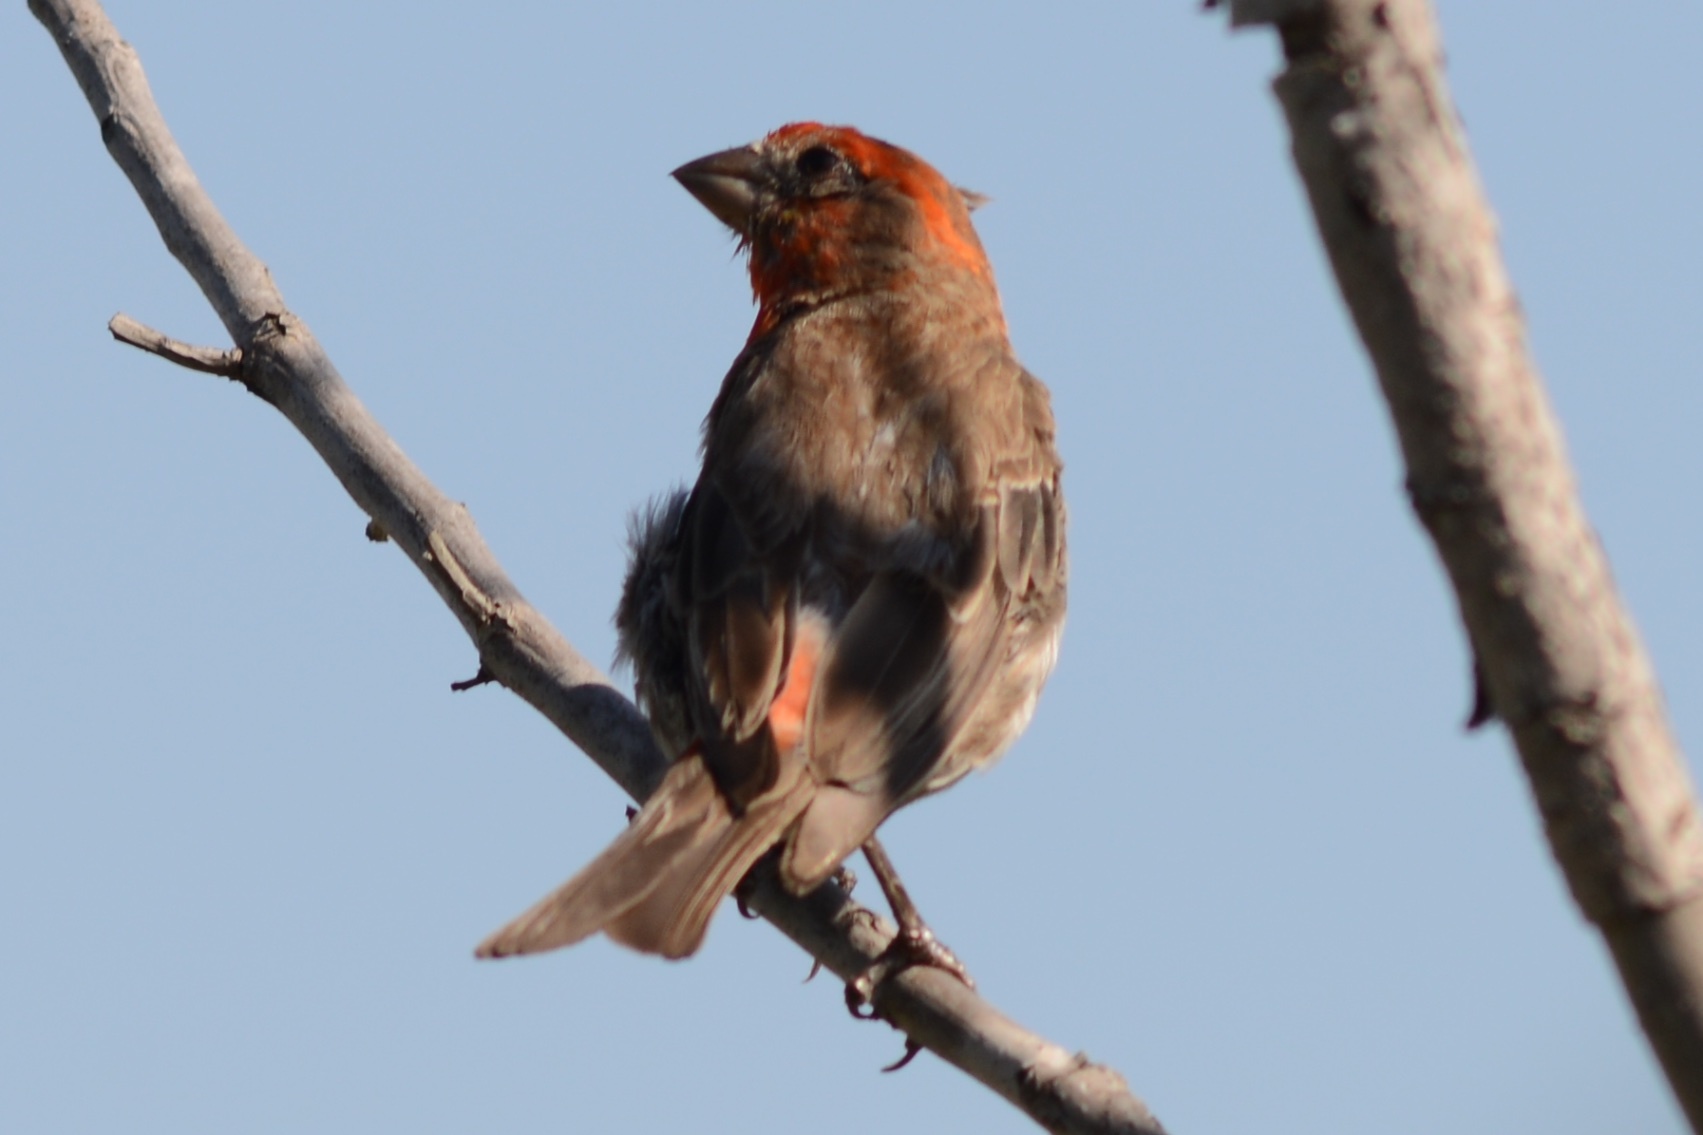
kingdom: Animalia
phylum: Chordata
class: Aves
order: Passeriformes
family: Fringillidae
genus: Haemorhous
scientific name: Haemorhous mexicanus
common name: House finch
